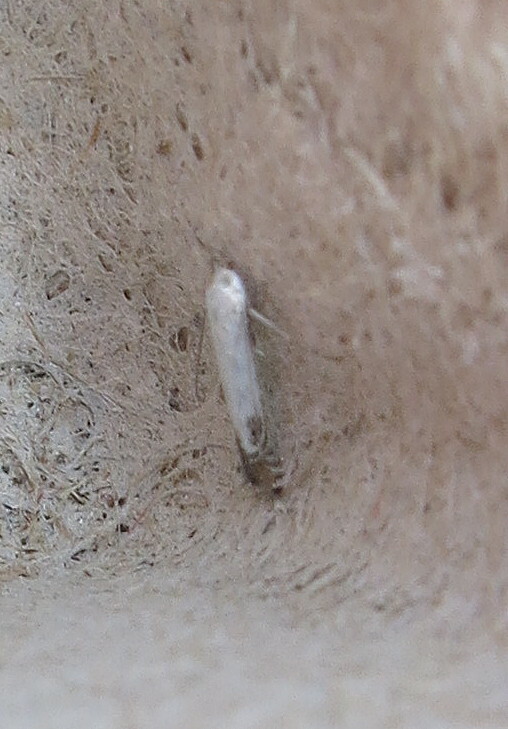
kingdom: Animalia
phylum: Arthropoda
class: Insecta
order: Lepidoptera
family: Lyonetiidae
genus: Lyonetia
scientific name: Lyonetia clerkella
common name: Apple leaf miner
